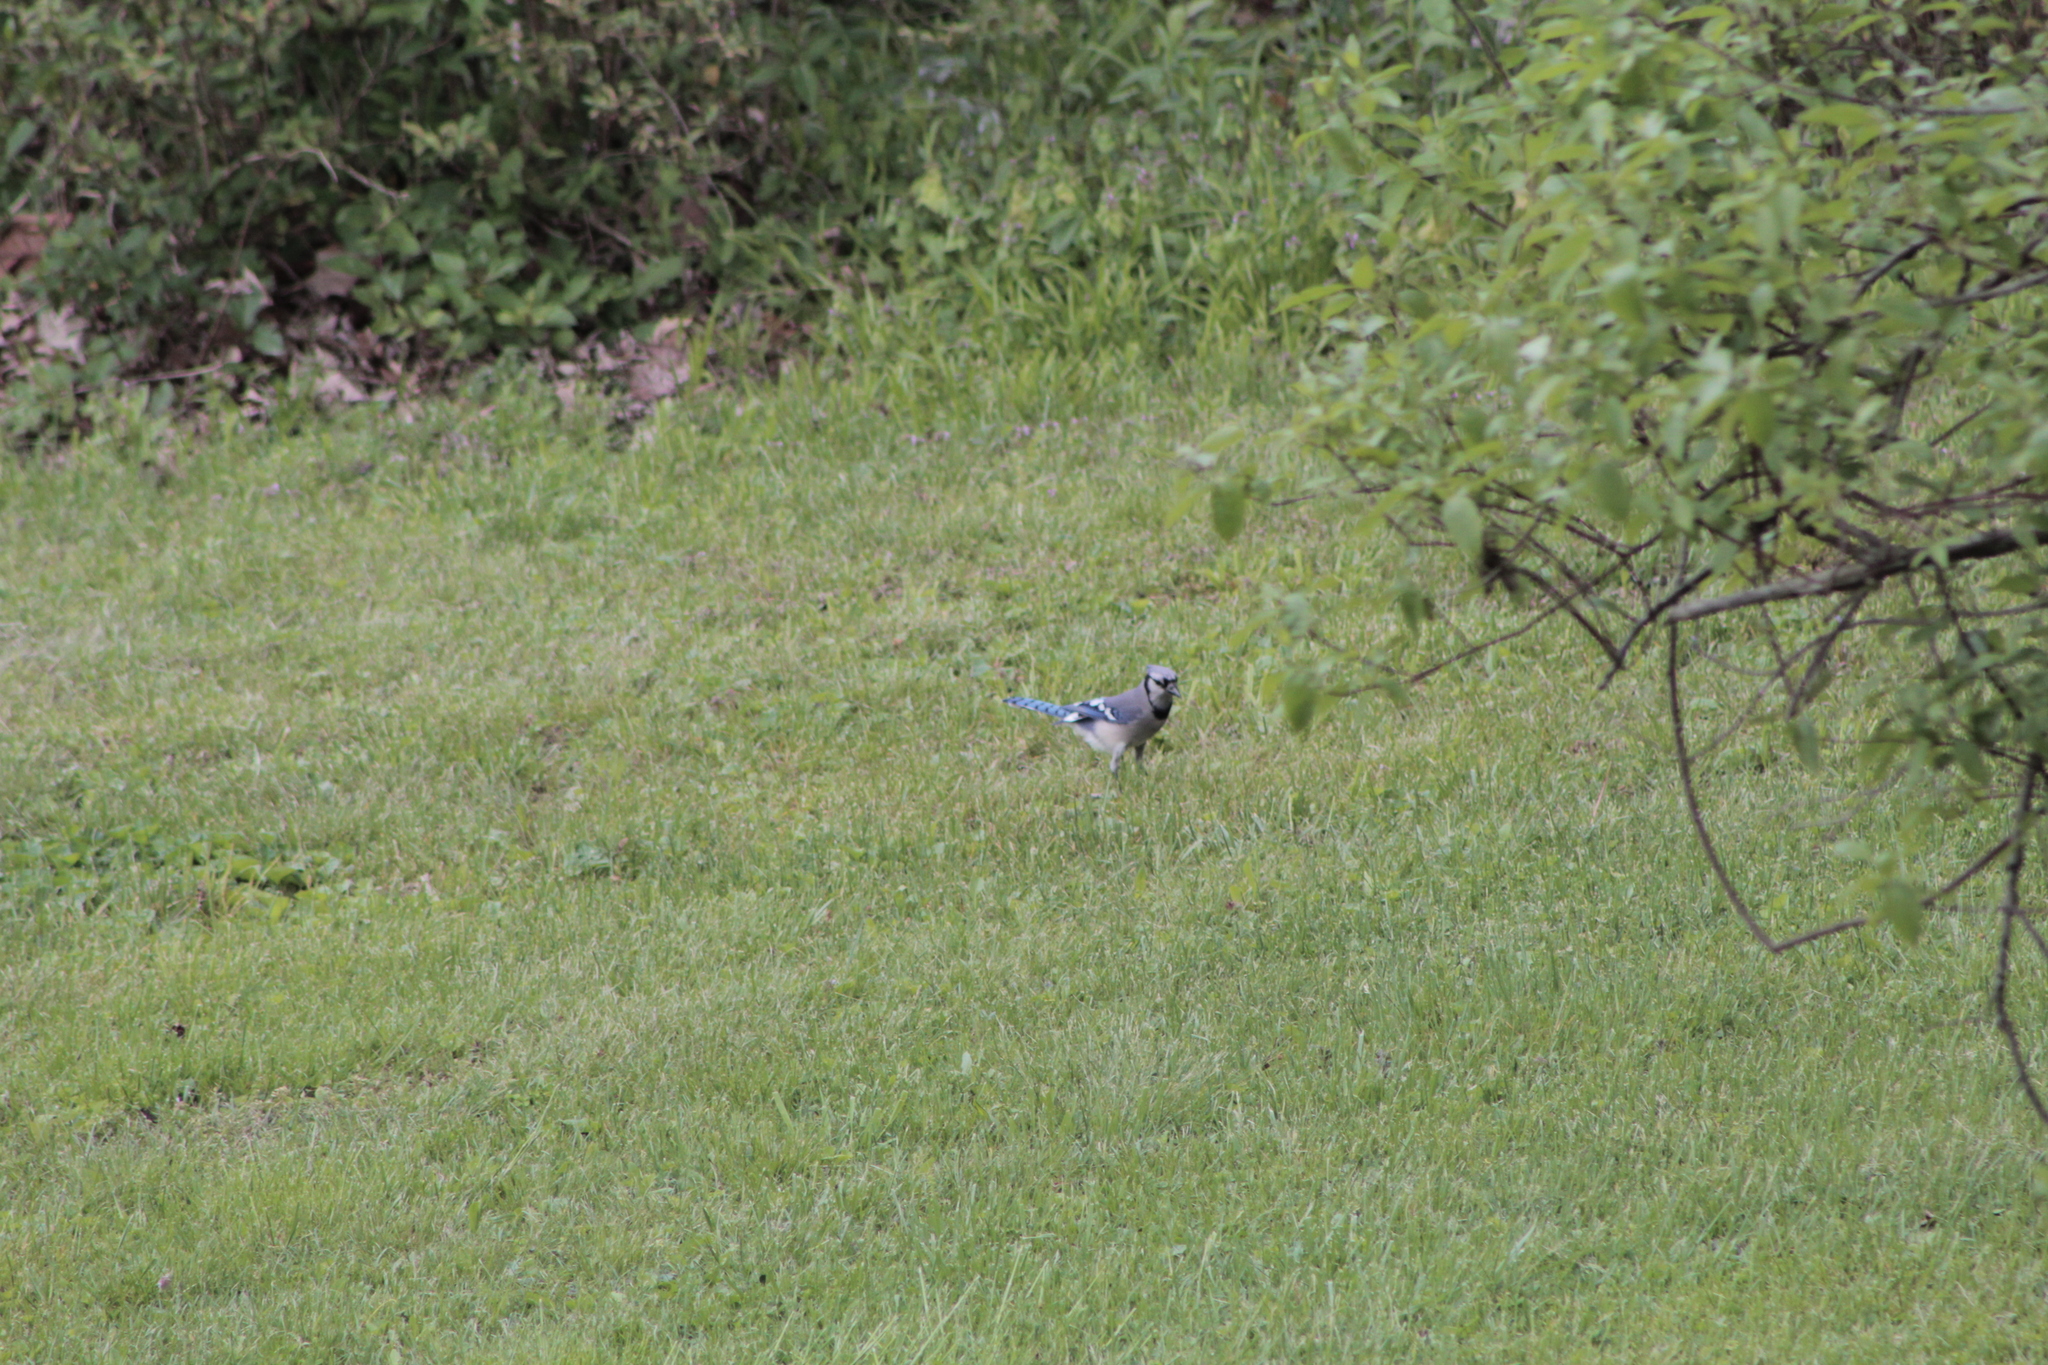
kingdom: Animalia
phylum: Chordata
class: Aves
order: Passeriformes
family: Corvidae
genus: Cyanocitta
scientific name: Cyanocitta cristata
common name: Blue jay
